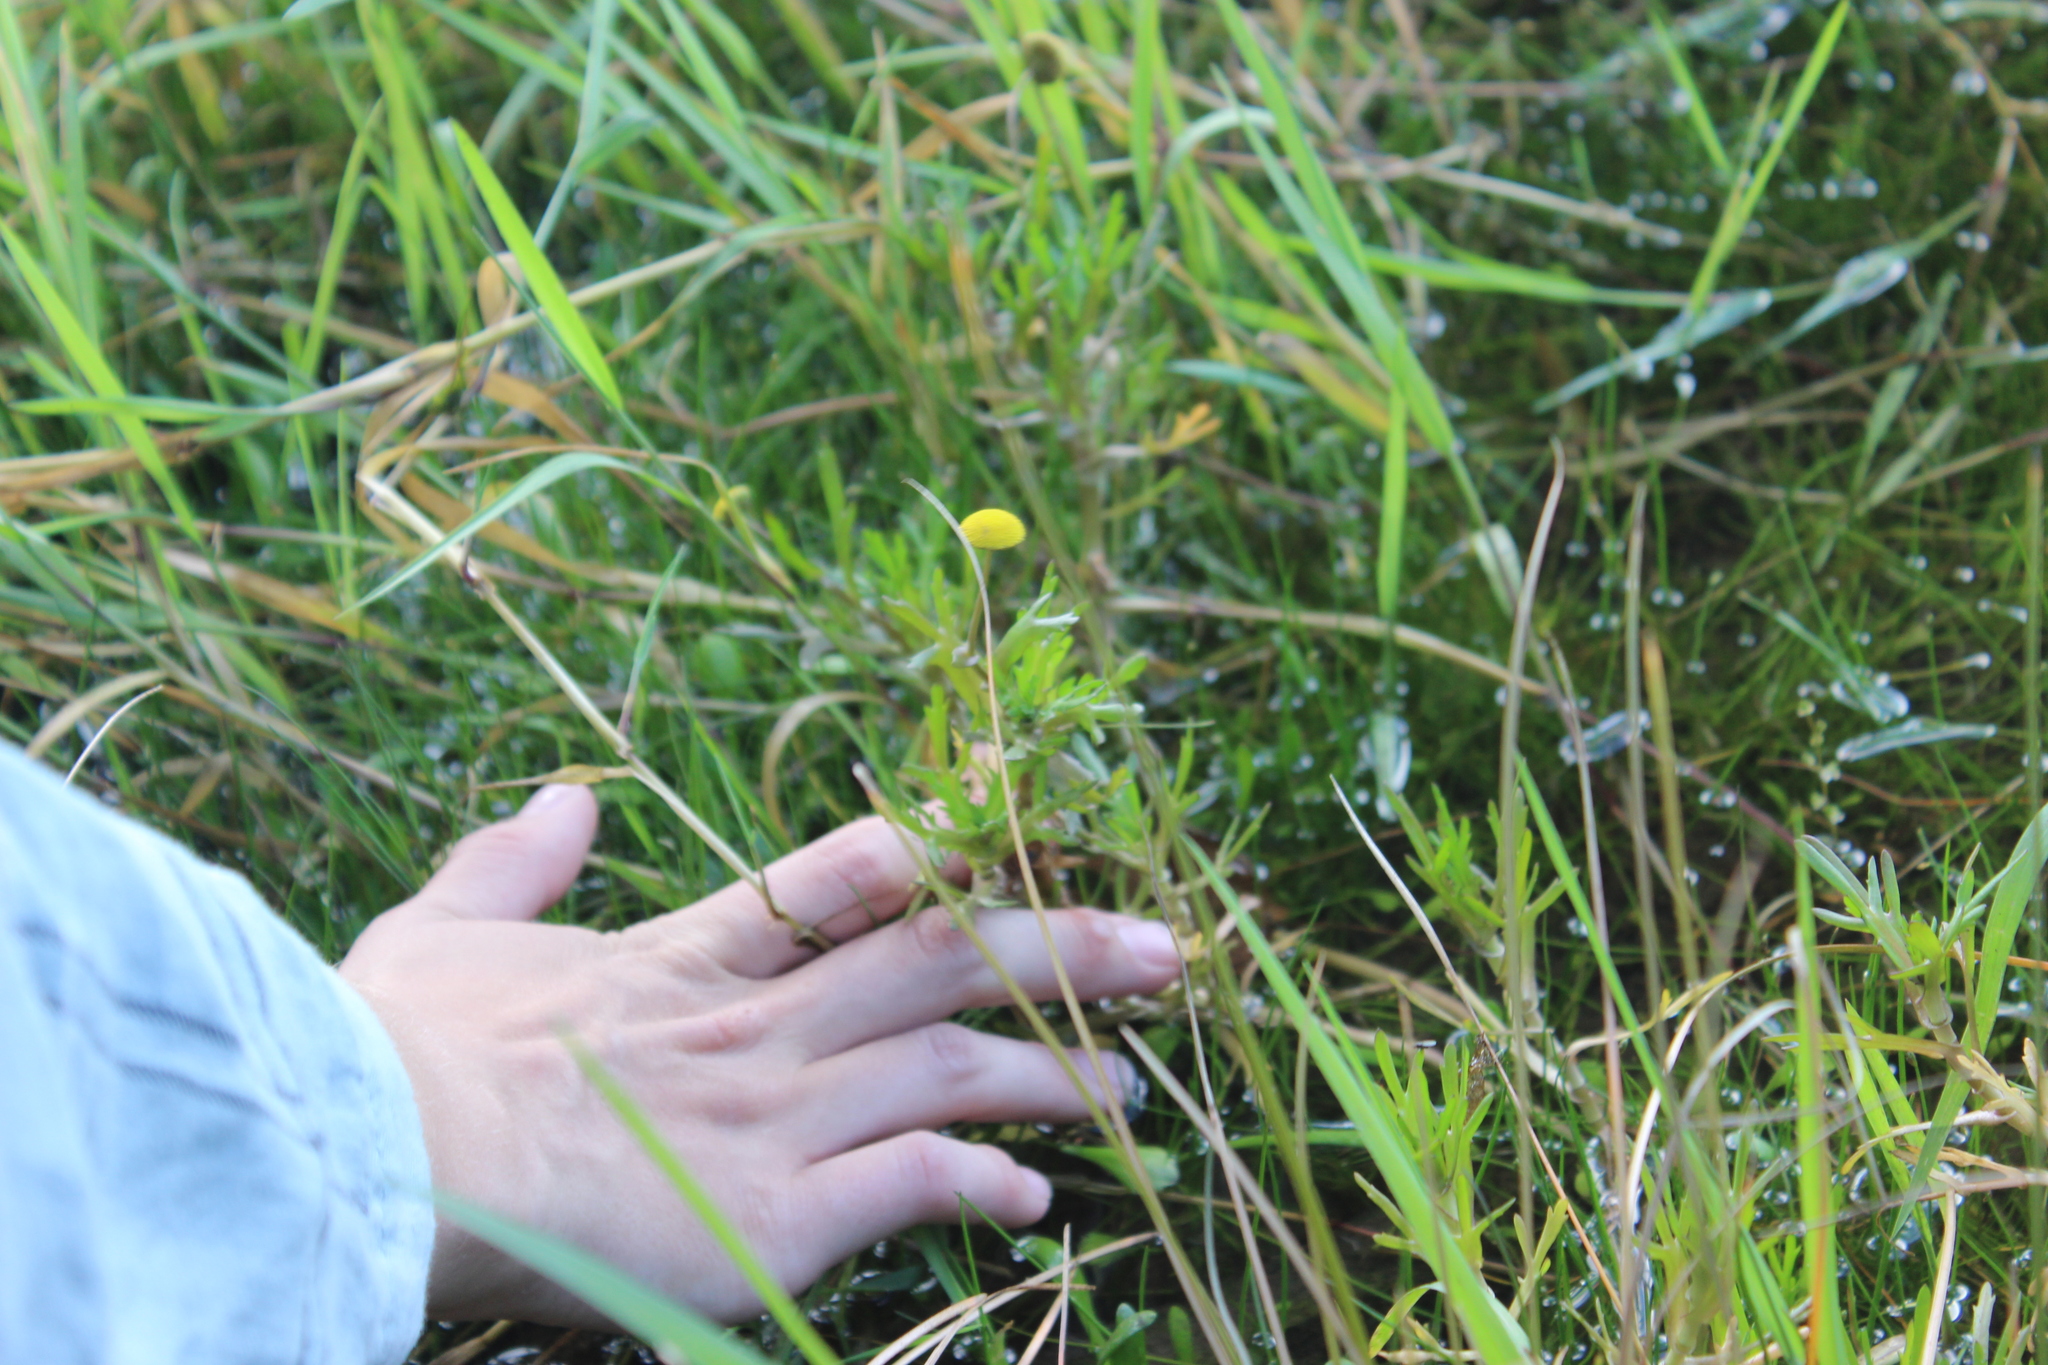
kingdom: Plantae
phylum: Tracheophyta
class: Magnoliopsida
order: Asterales
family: Asteraceae
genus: Cotula
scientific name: Cotula coronopifolia
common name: Buttonweed
